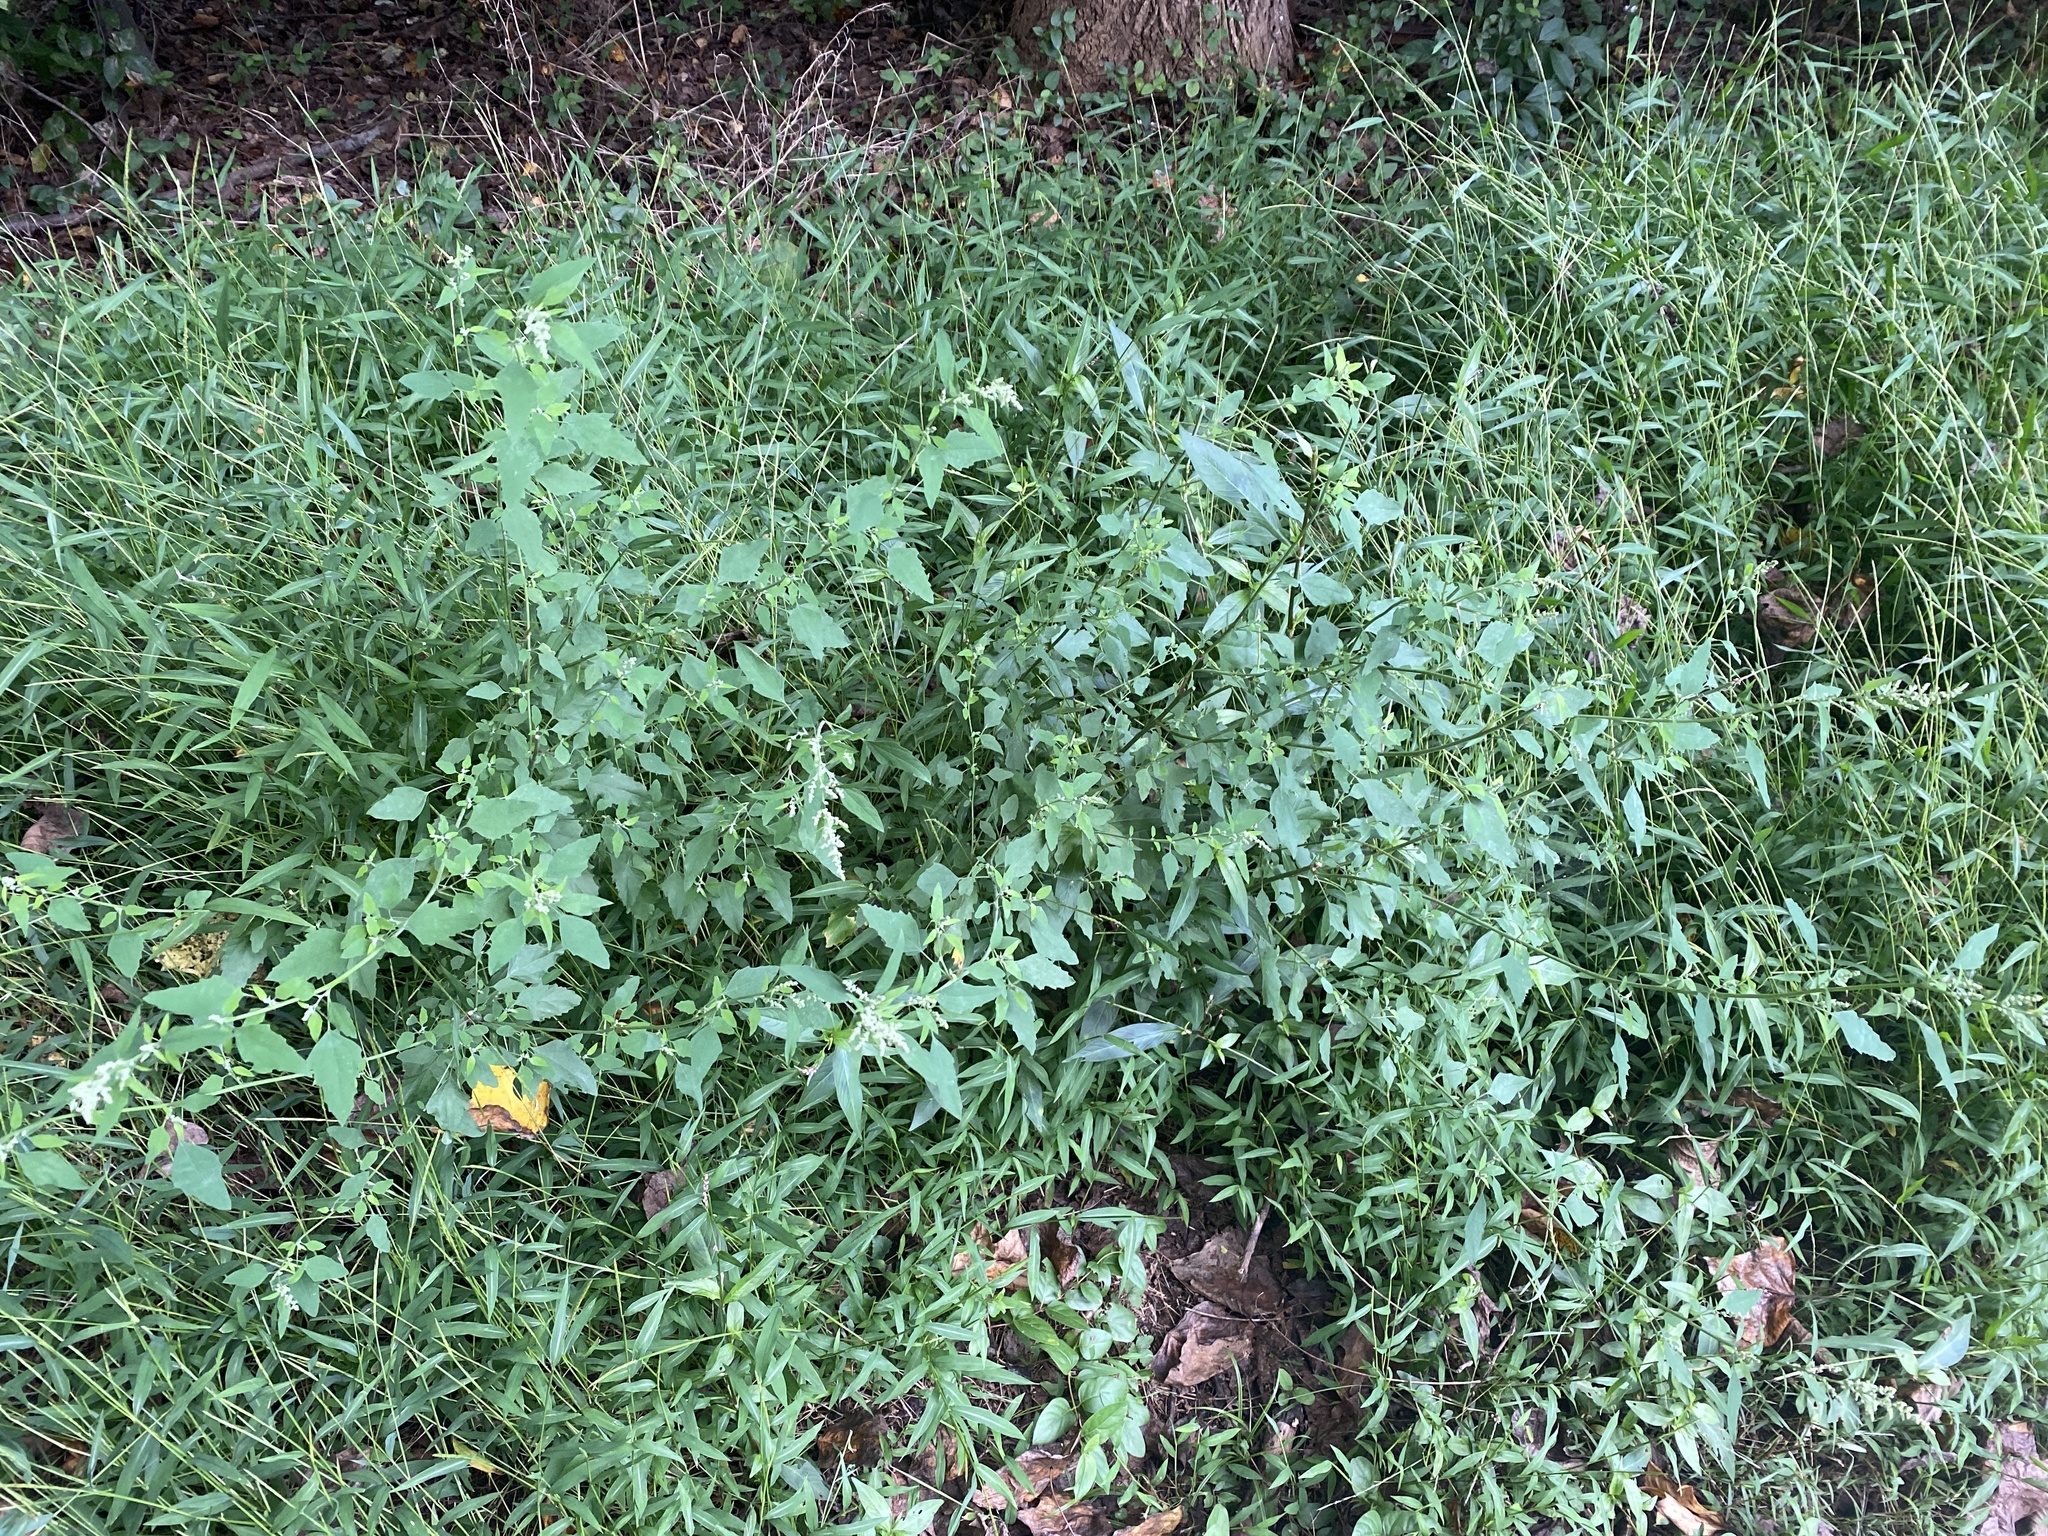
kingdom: Plantae
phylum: Tracheophyta
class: Magnoliopsida
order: Caryophyllales
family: Amaranthaceae
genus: Chenopodium
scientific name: Chenopodium album
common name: Fat-hen
